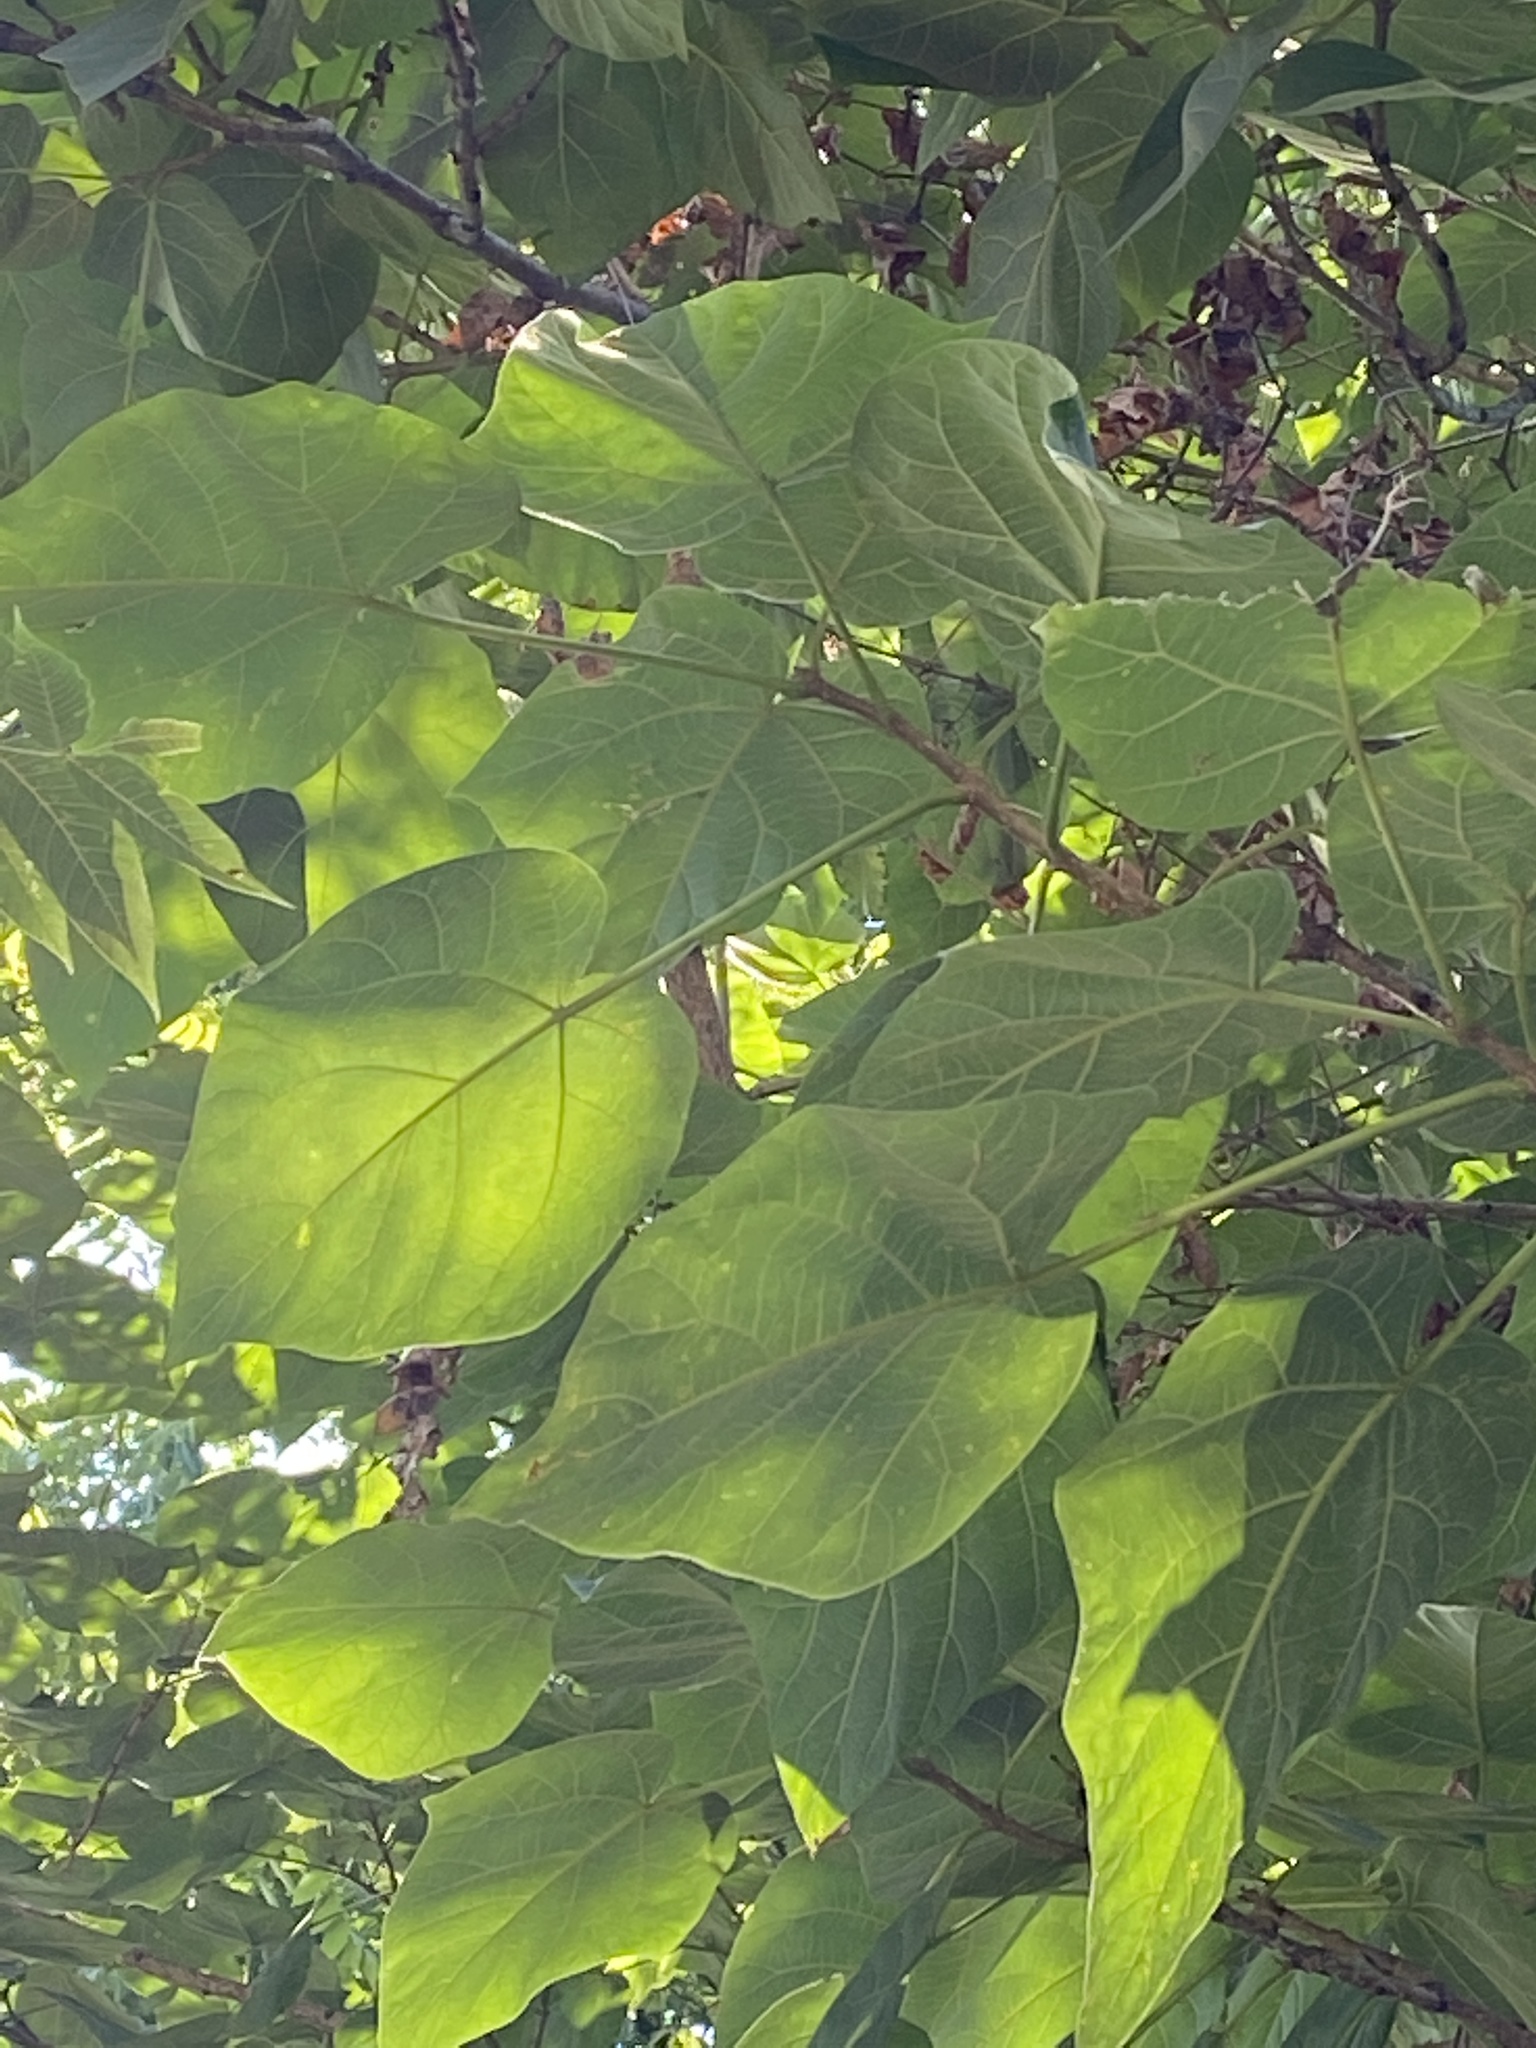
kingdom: Plantae
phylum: Tracheophyta
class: Magnoliopsida
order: Lamiales
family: Paulowniaceae
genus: Paulownia
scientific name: Paulownia tomentosa
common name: Foxglove-tree
